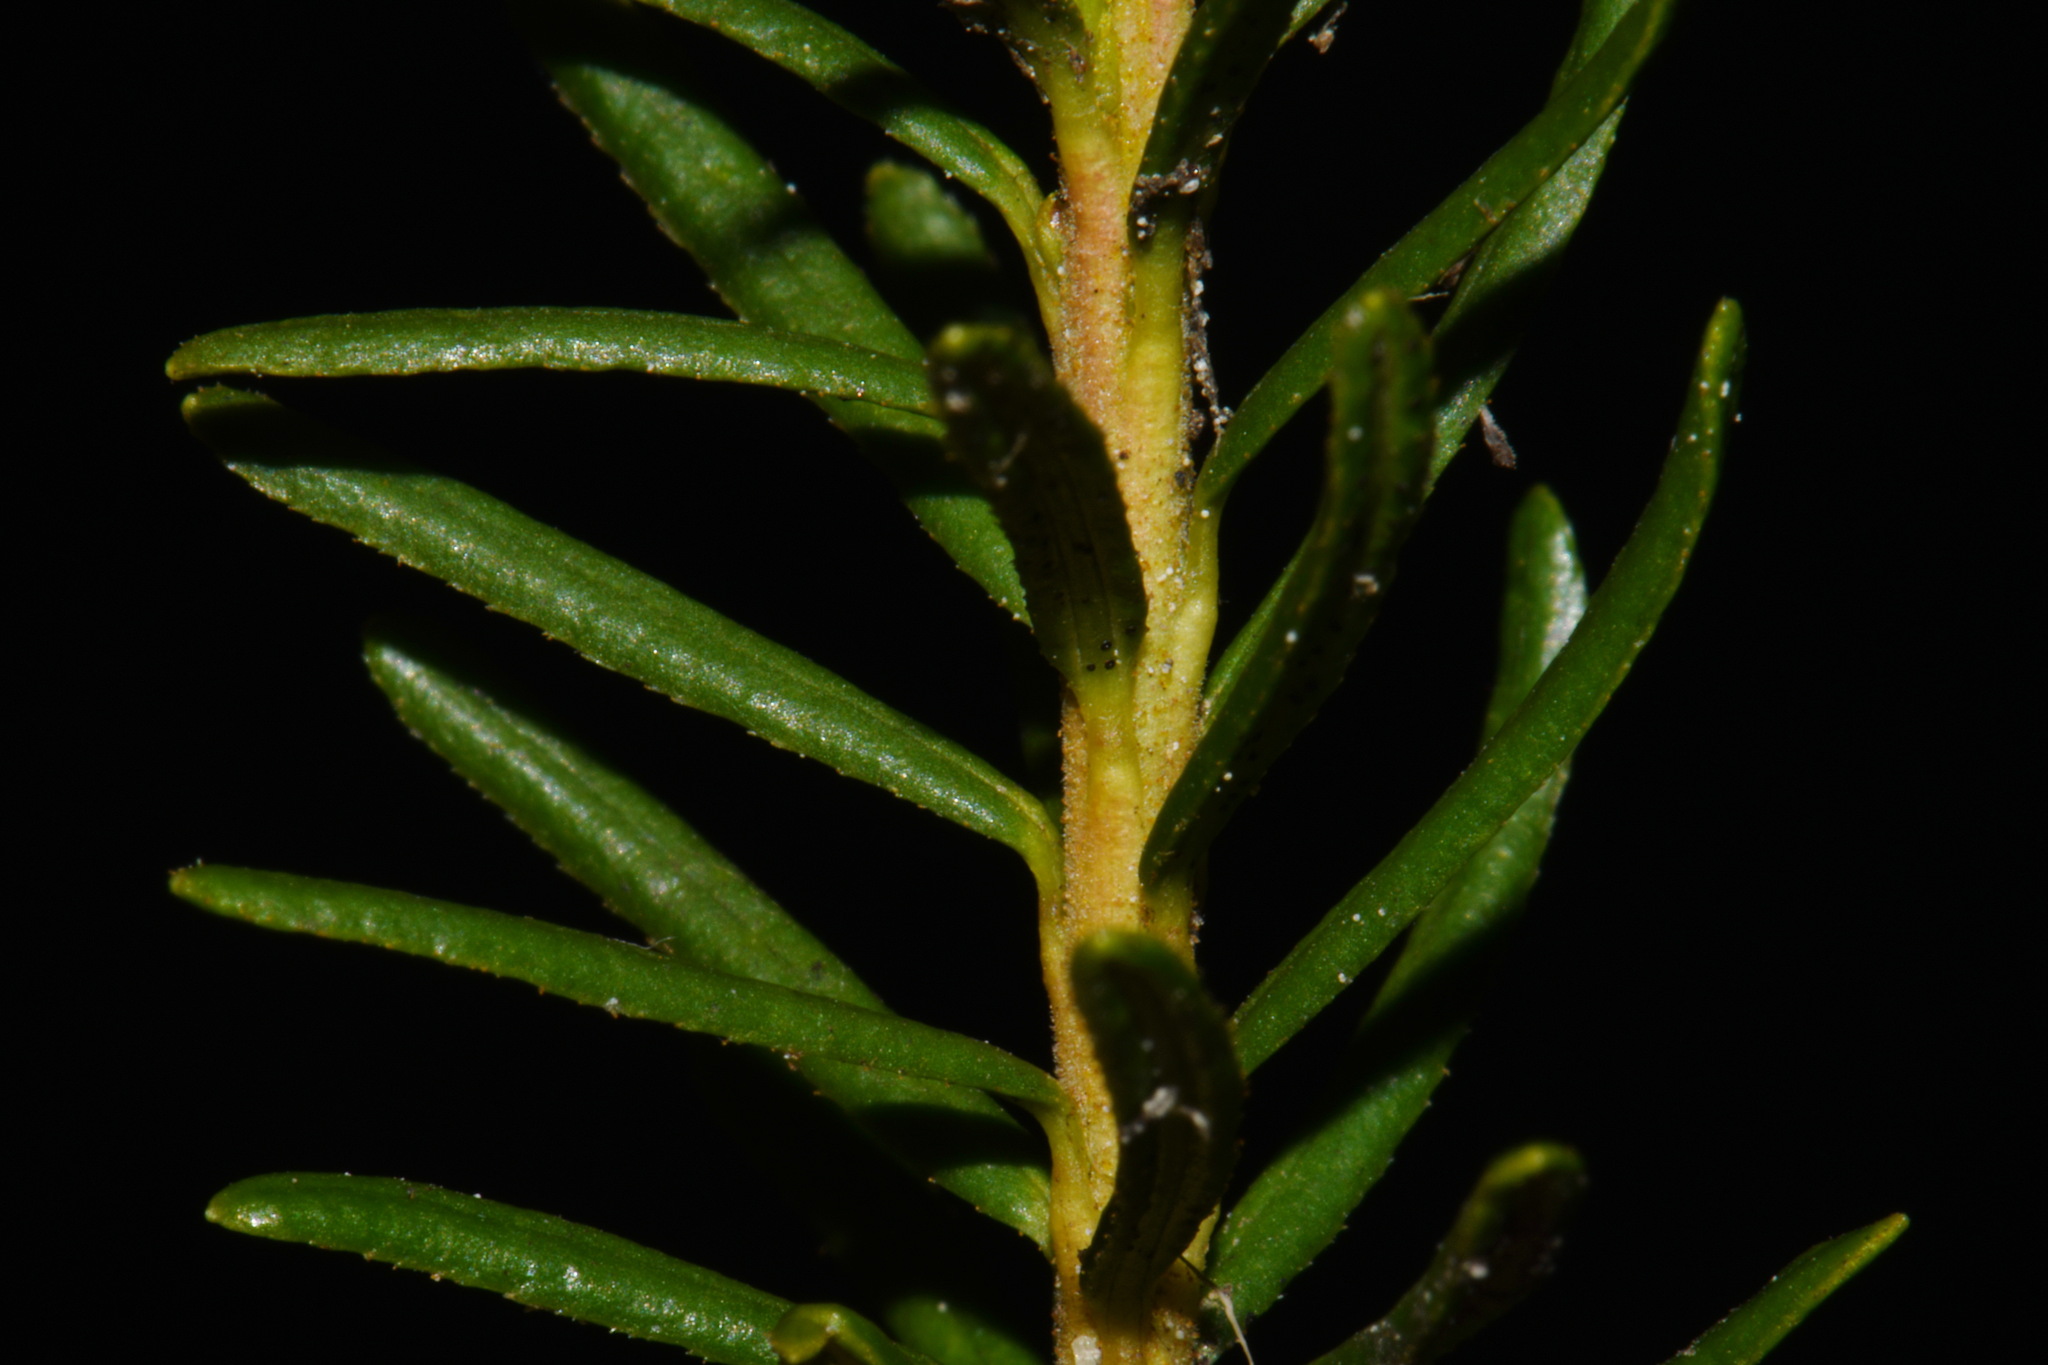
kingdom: Plantae
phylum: Tracheophyta
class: Magnoliopsida
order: Ericales
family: Ericaceae
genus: Phyllodoce
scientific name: Phyllodoce empetriformis
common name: Pink mountain heather
